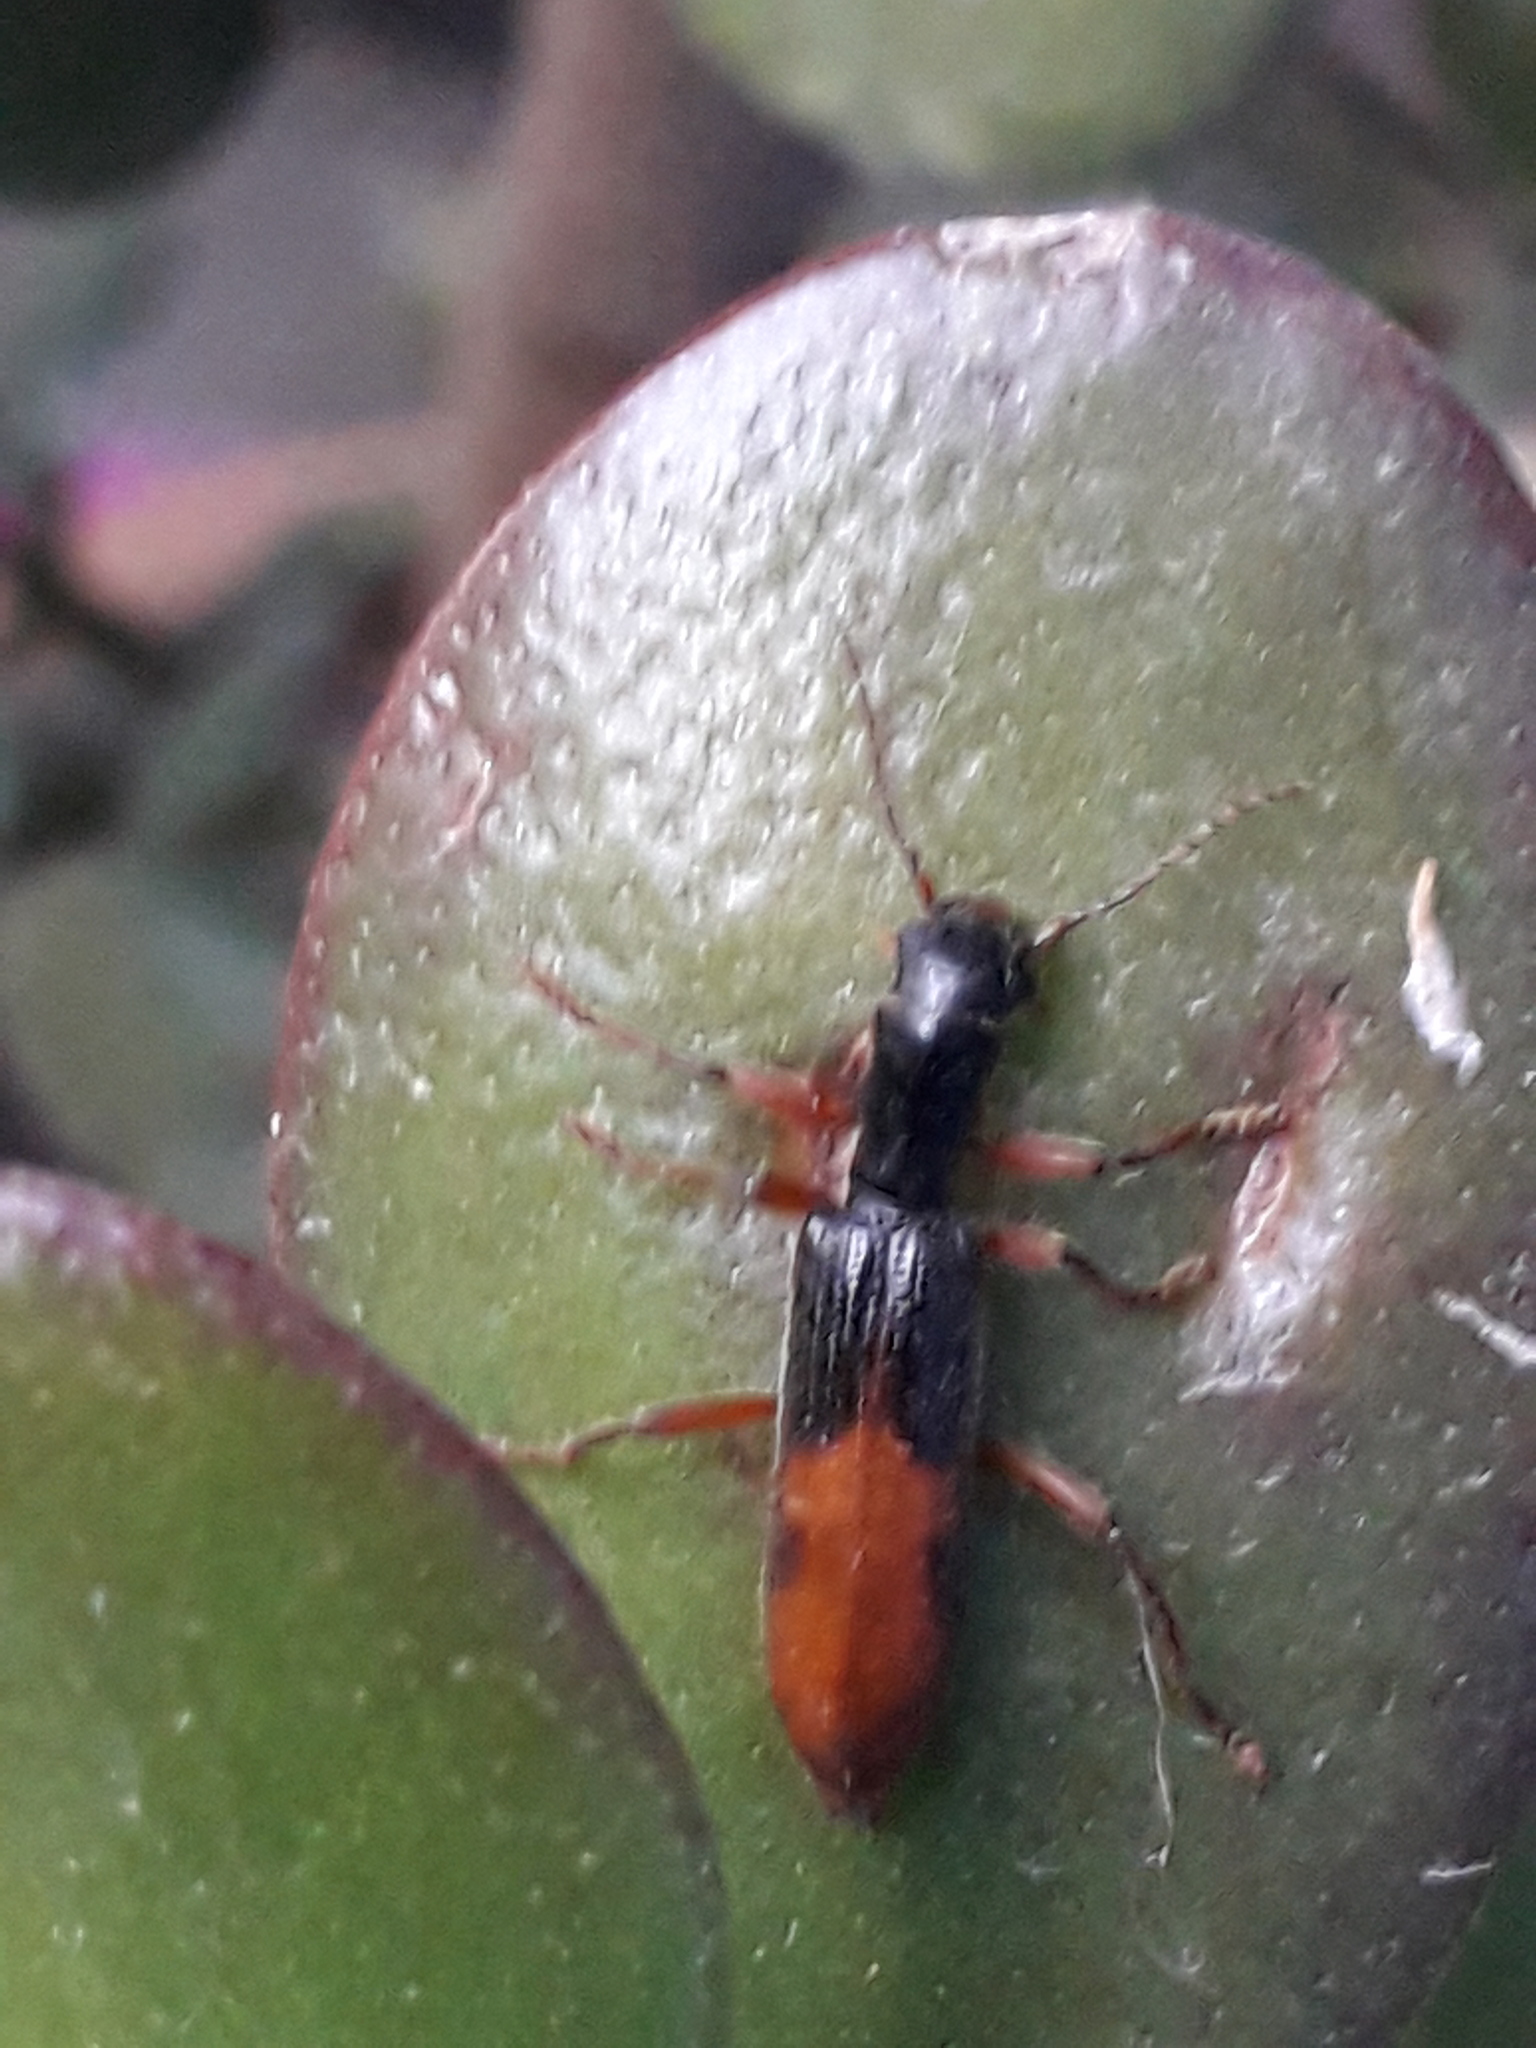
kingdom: Animalia
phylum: Arthropoda
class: Insecta
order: Coleoptera
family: Cleridae
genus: Cymatodera
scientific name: Cymatodera hopei
